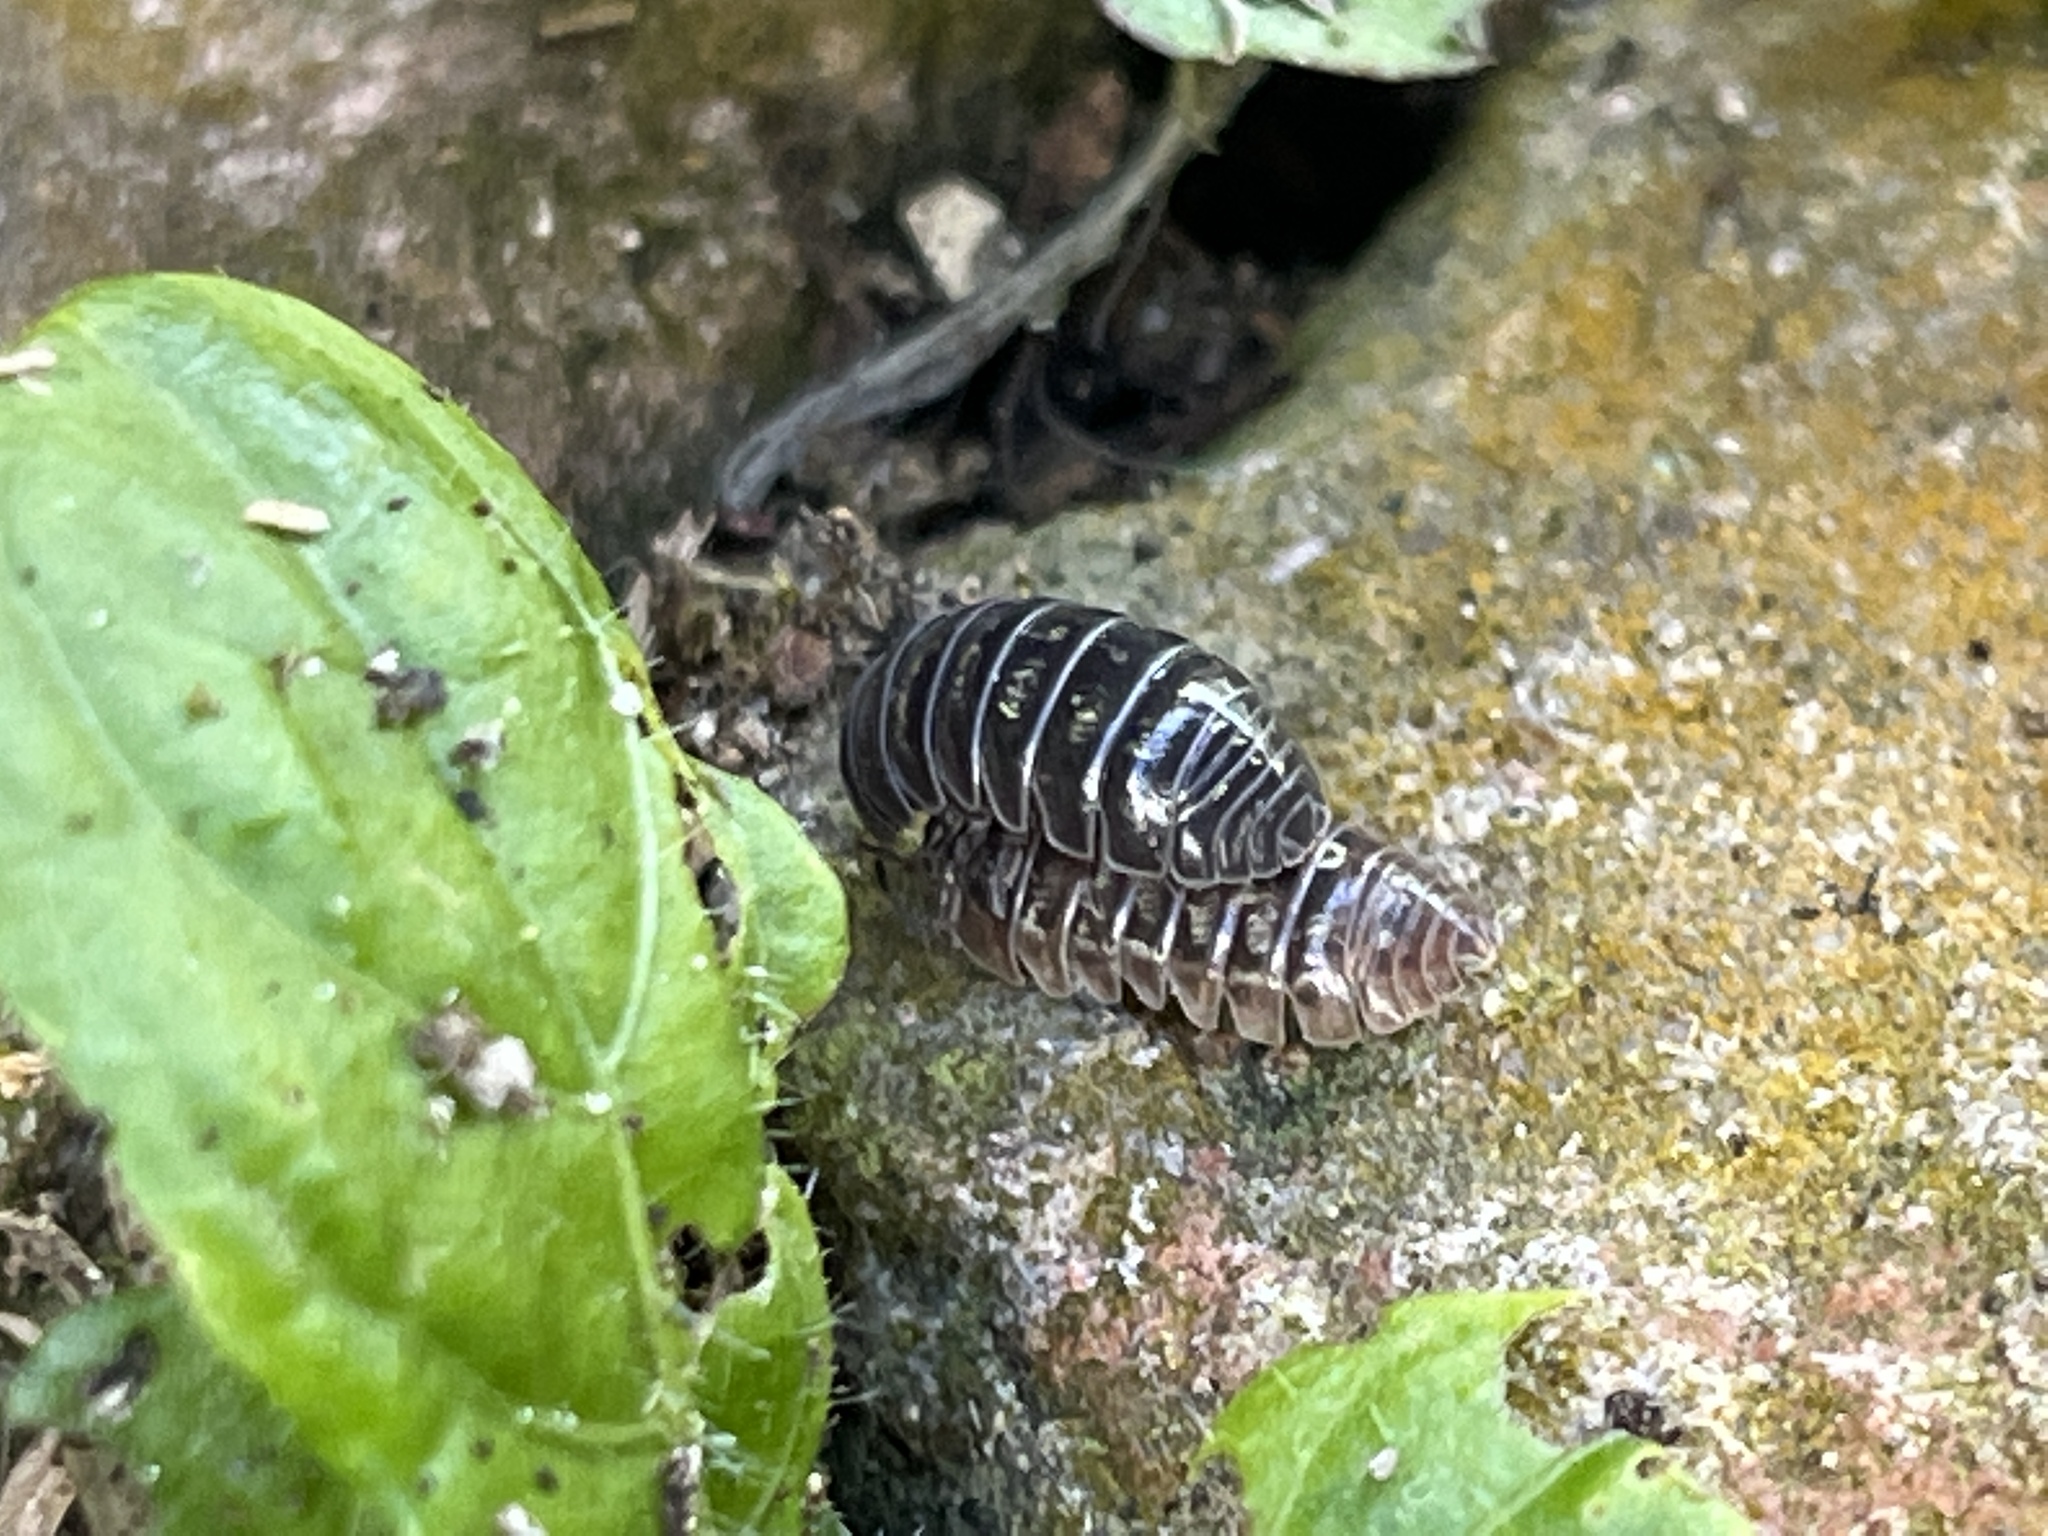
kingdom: Animalia
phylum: Arthropoda
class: Malacostraca
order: Isopoda
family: Armadillidiidae
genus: Armadillidium
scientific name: Armadillidium vulgare
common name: Common pill woodlouse
